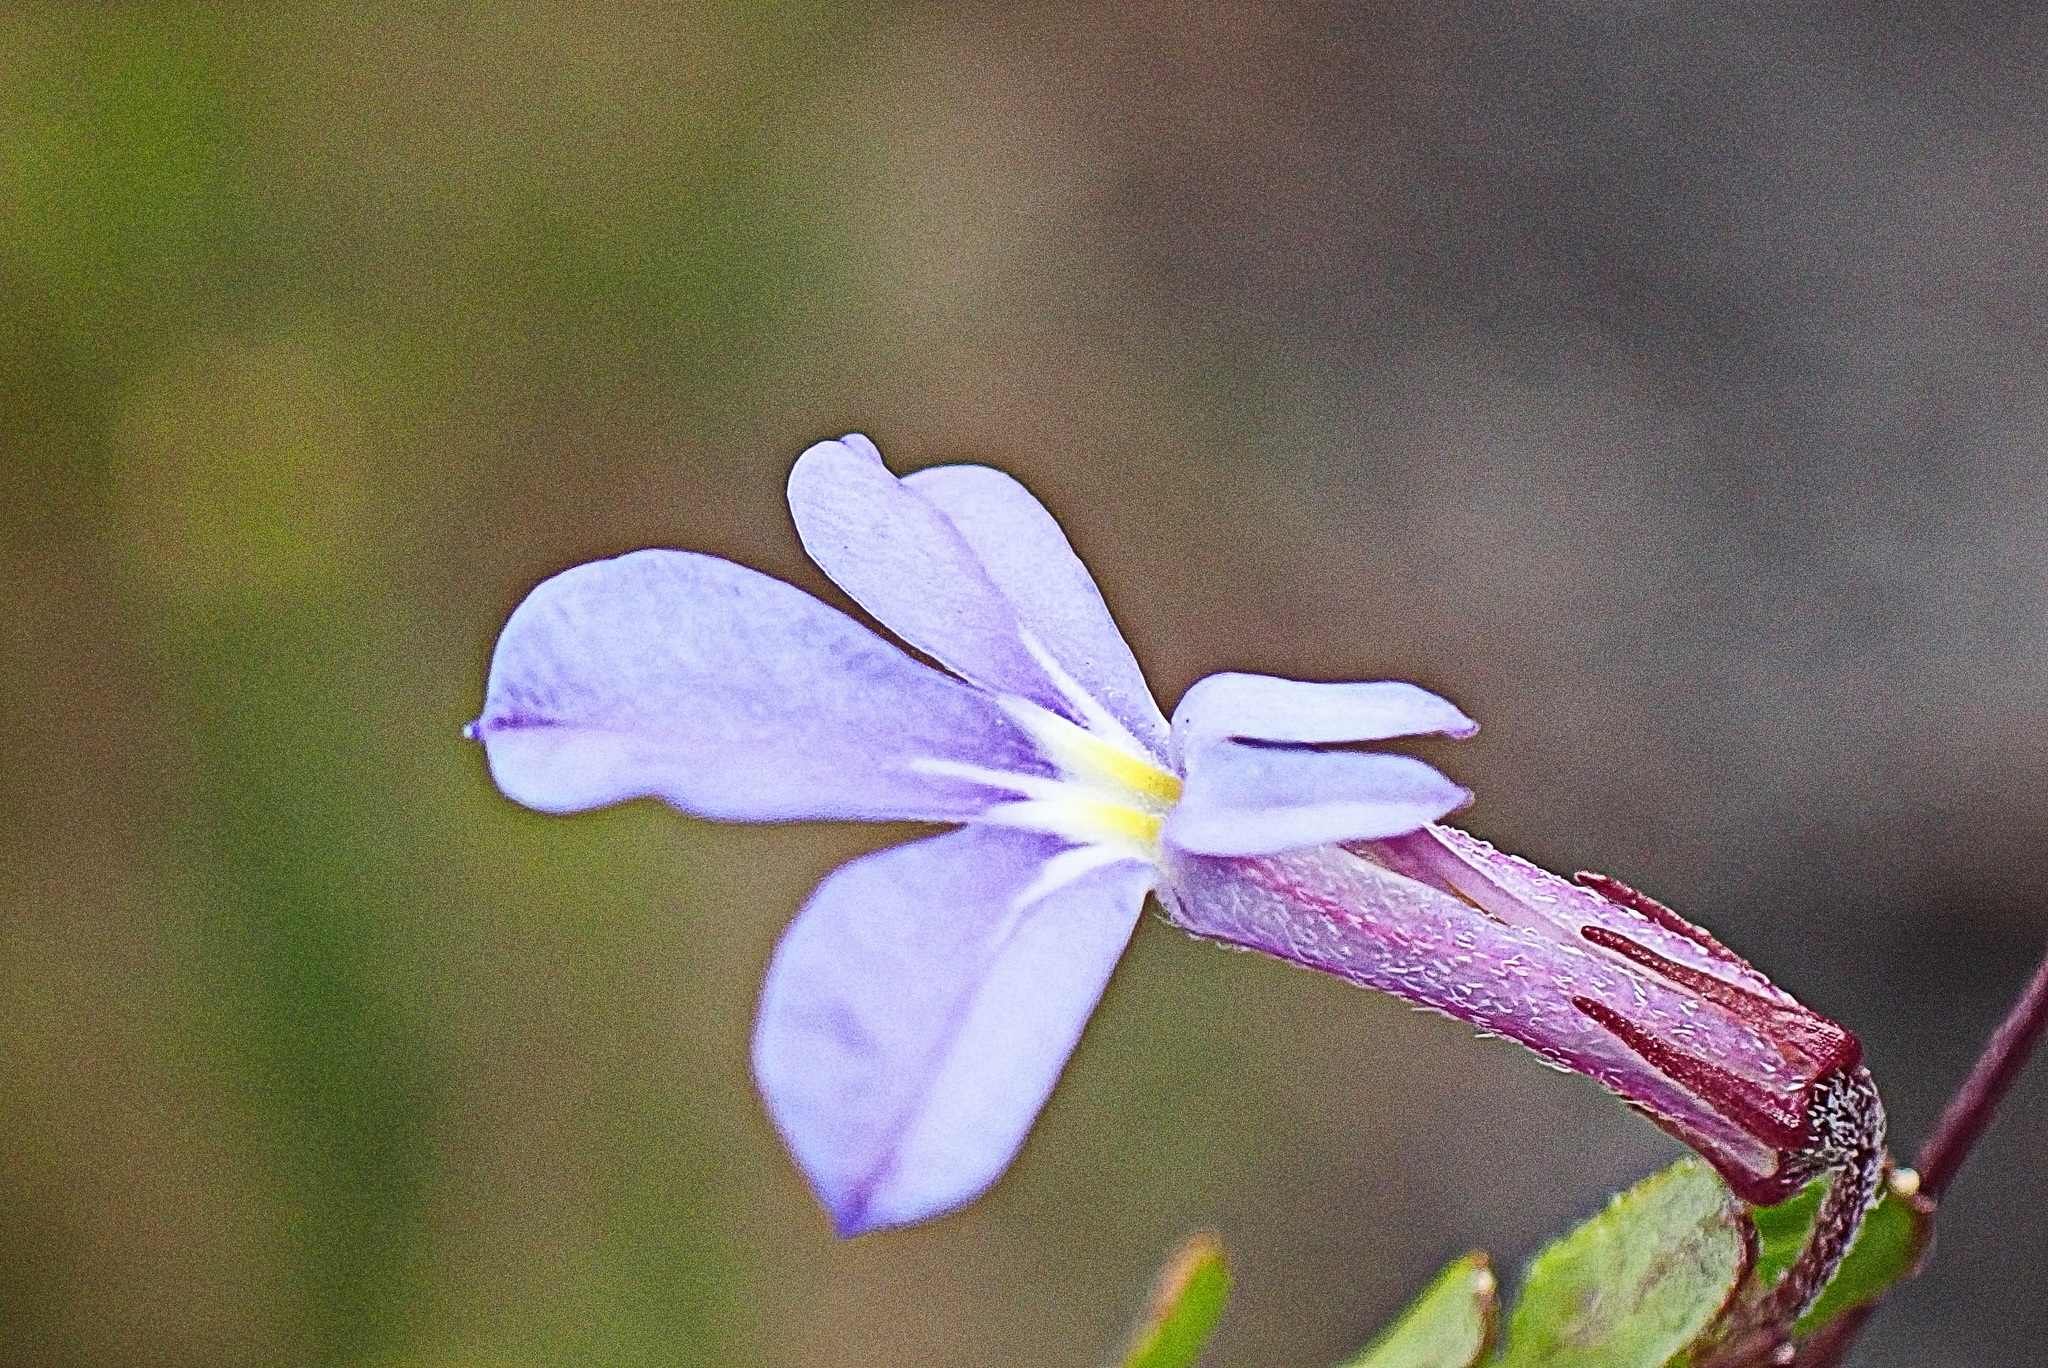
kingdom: Plantae
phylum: Tracheophyta
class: Magnoliopsida
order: Asterales
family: Campanulaceae
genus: Lobelia
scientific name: Lobelia neglecta
